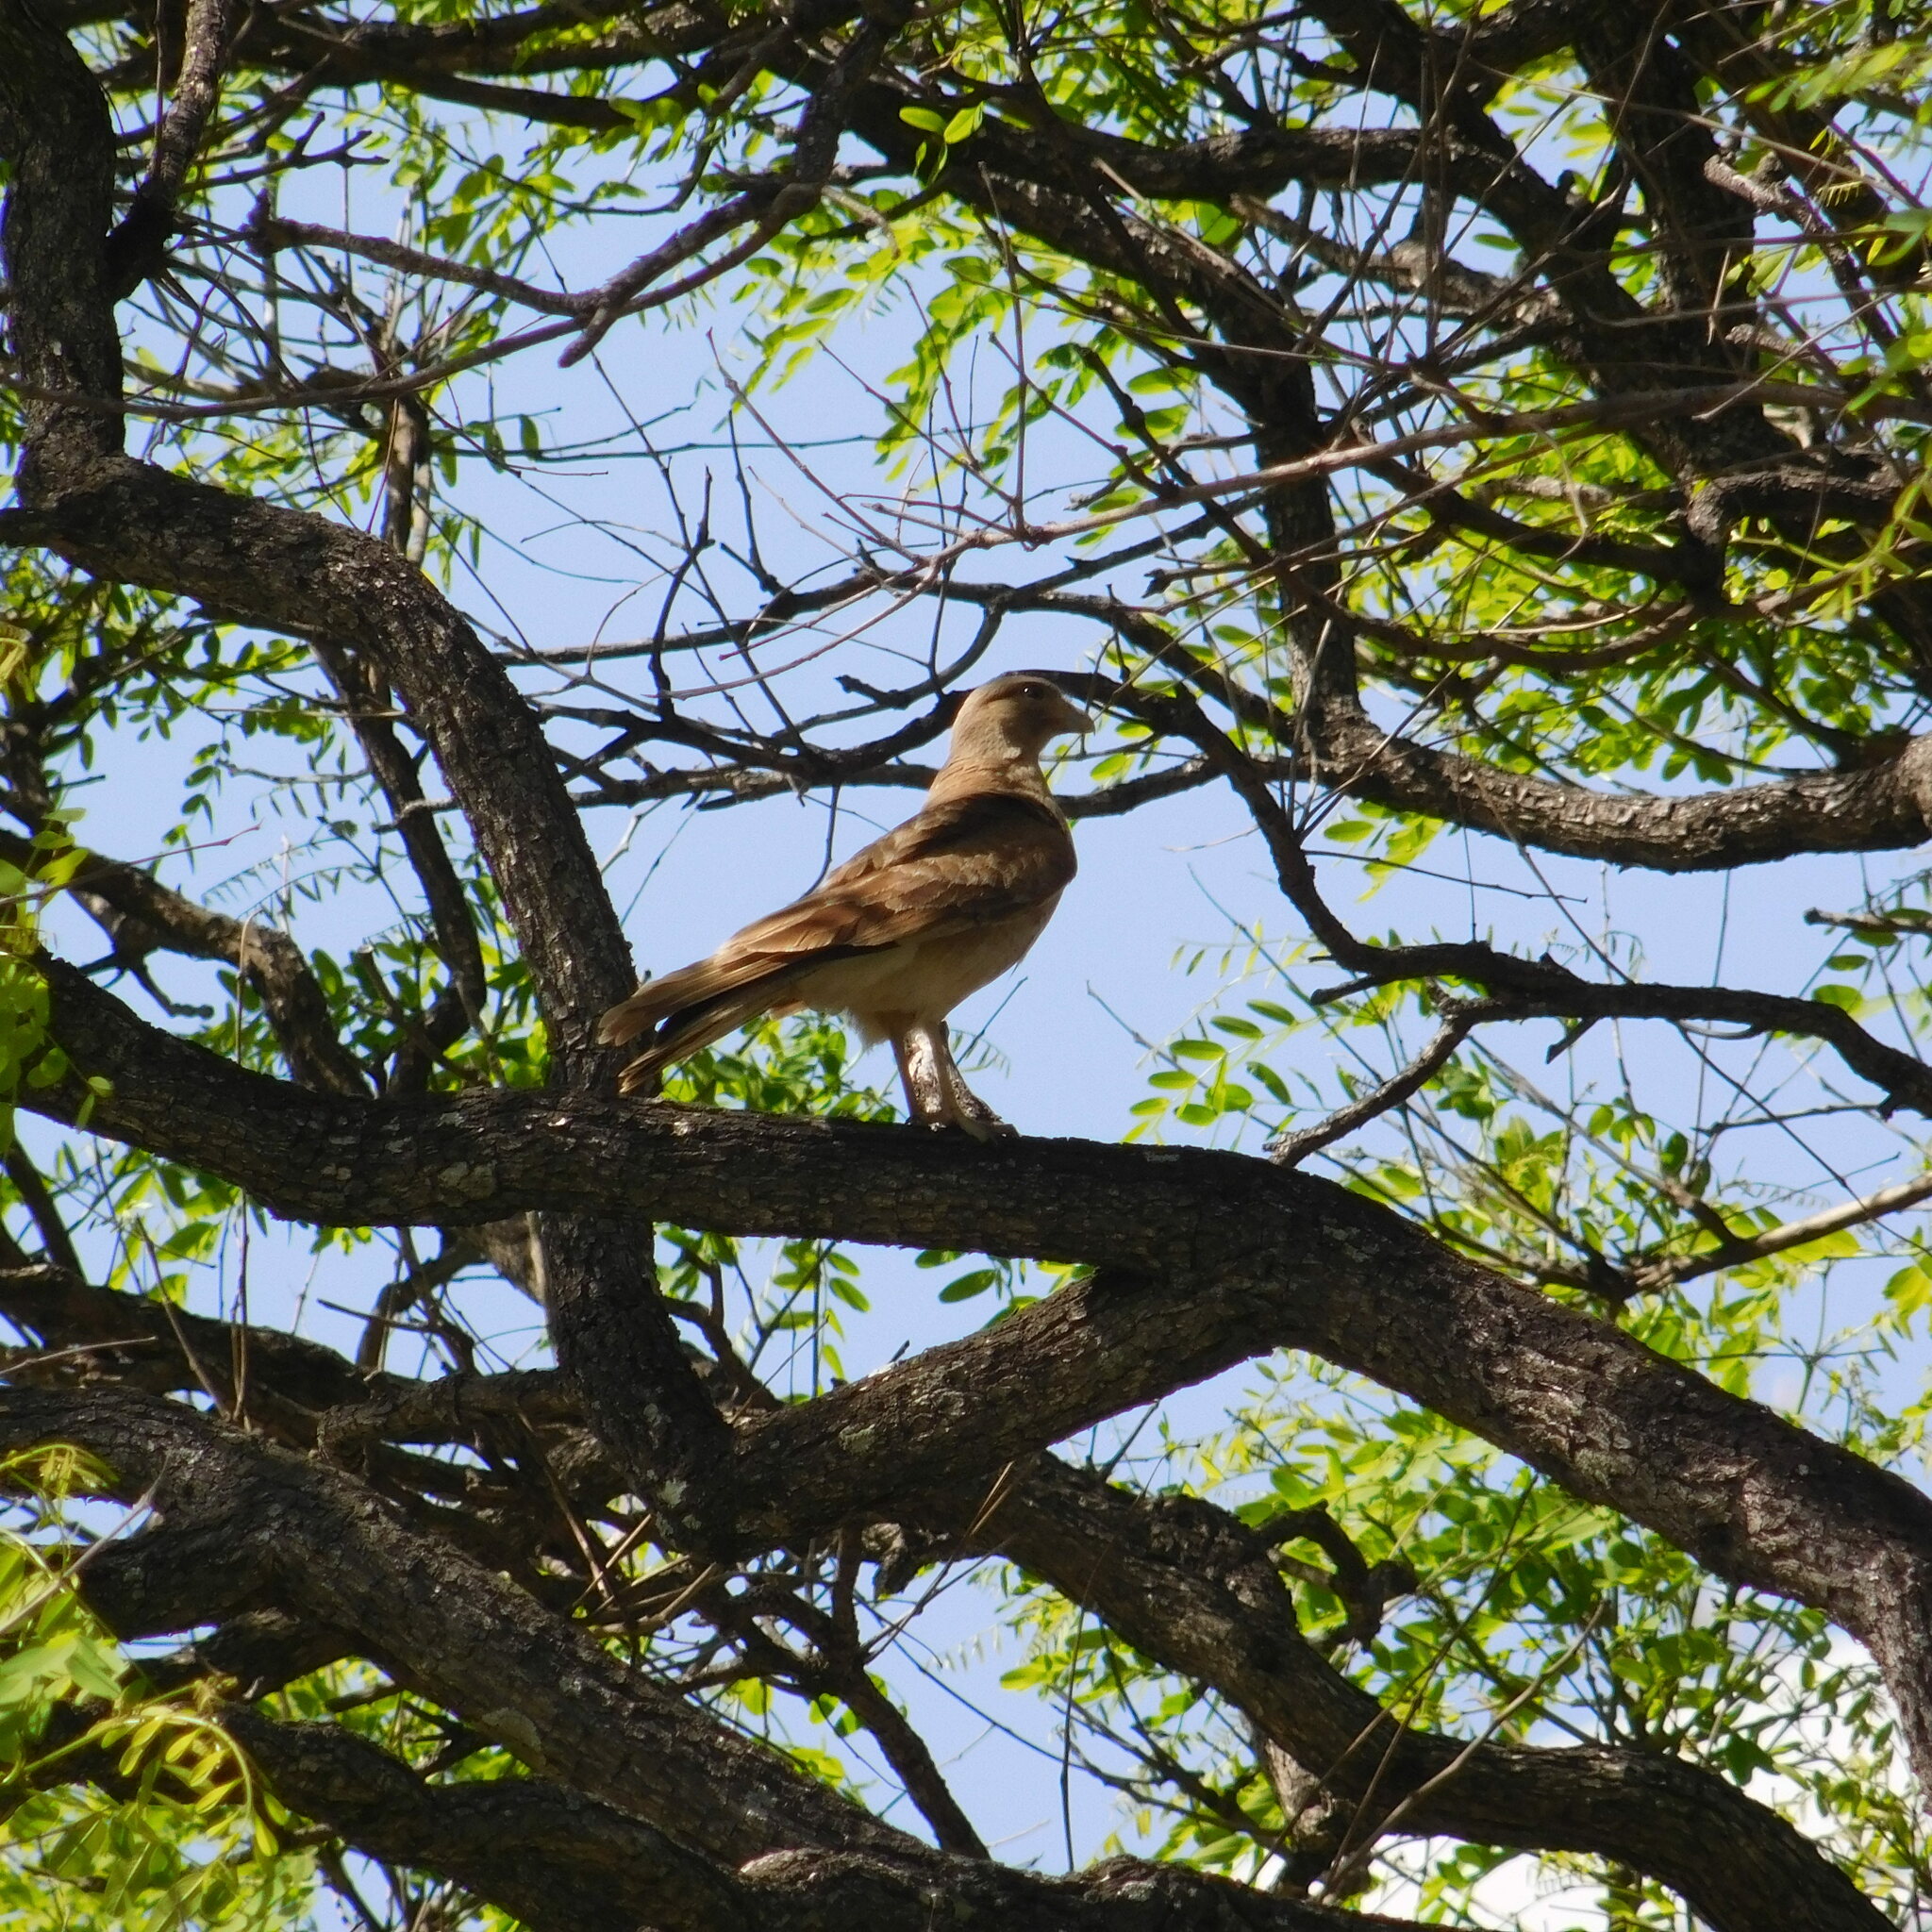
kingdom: Animalia
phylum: Chordata
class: Aves
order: Falconiformes
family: Falconidae
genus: Daptrius
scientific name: Daptrius
